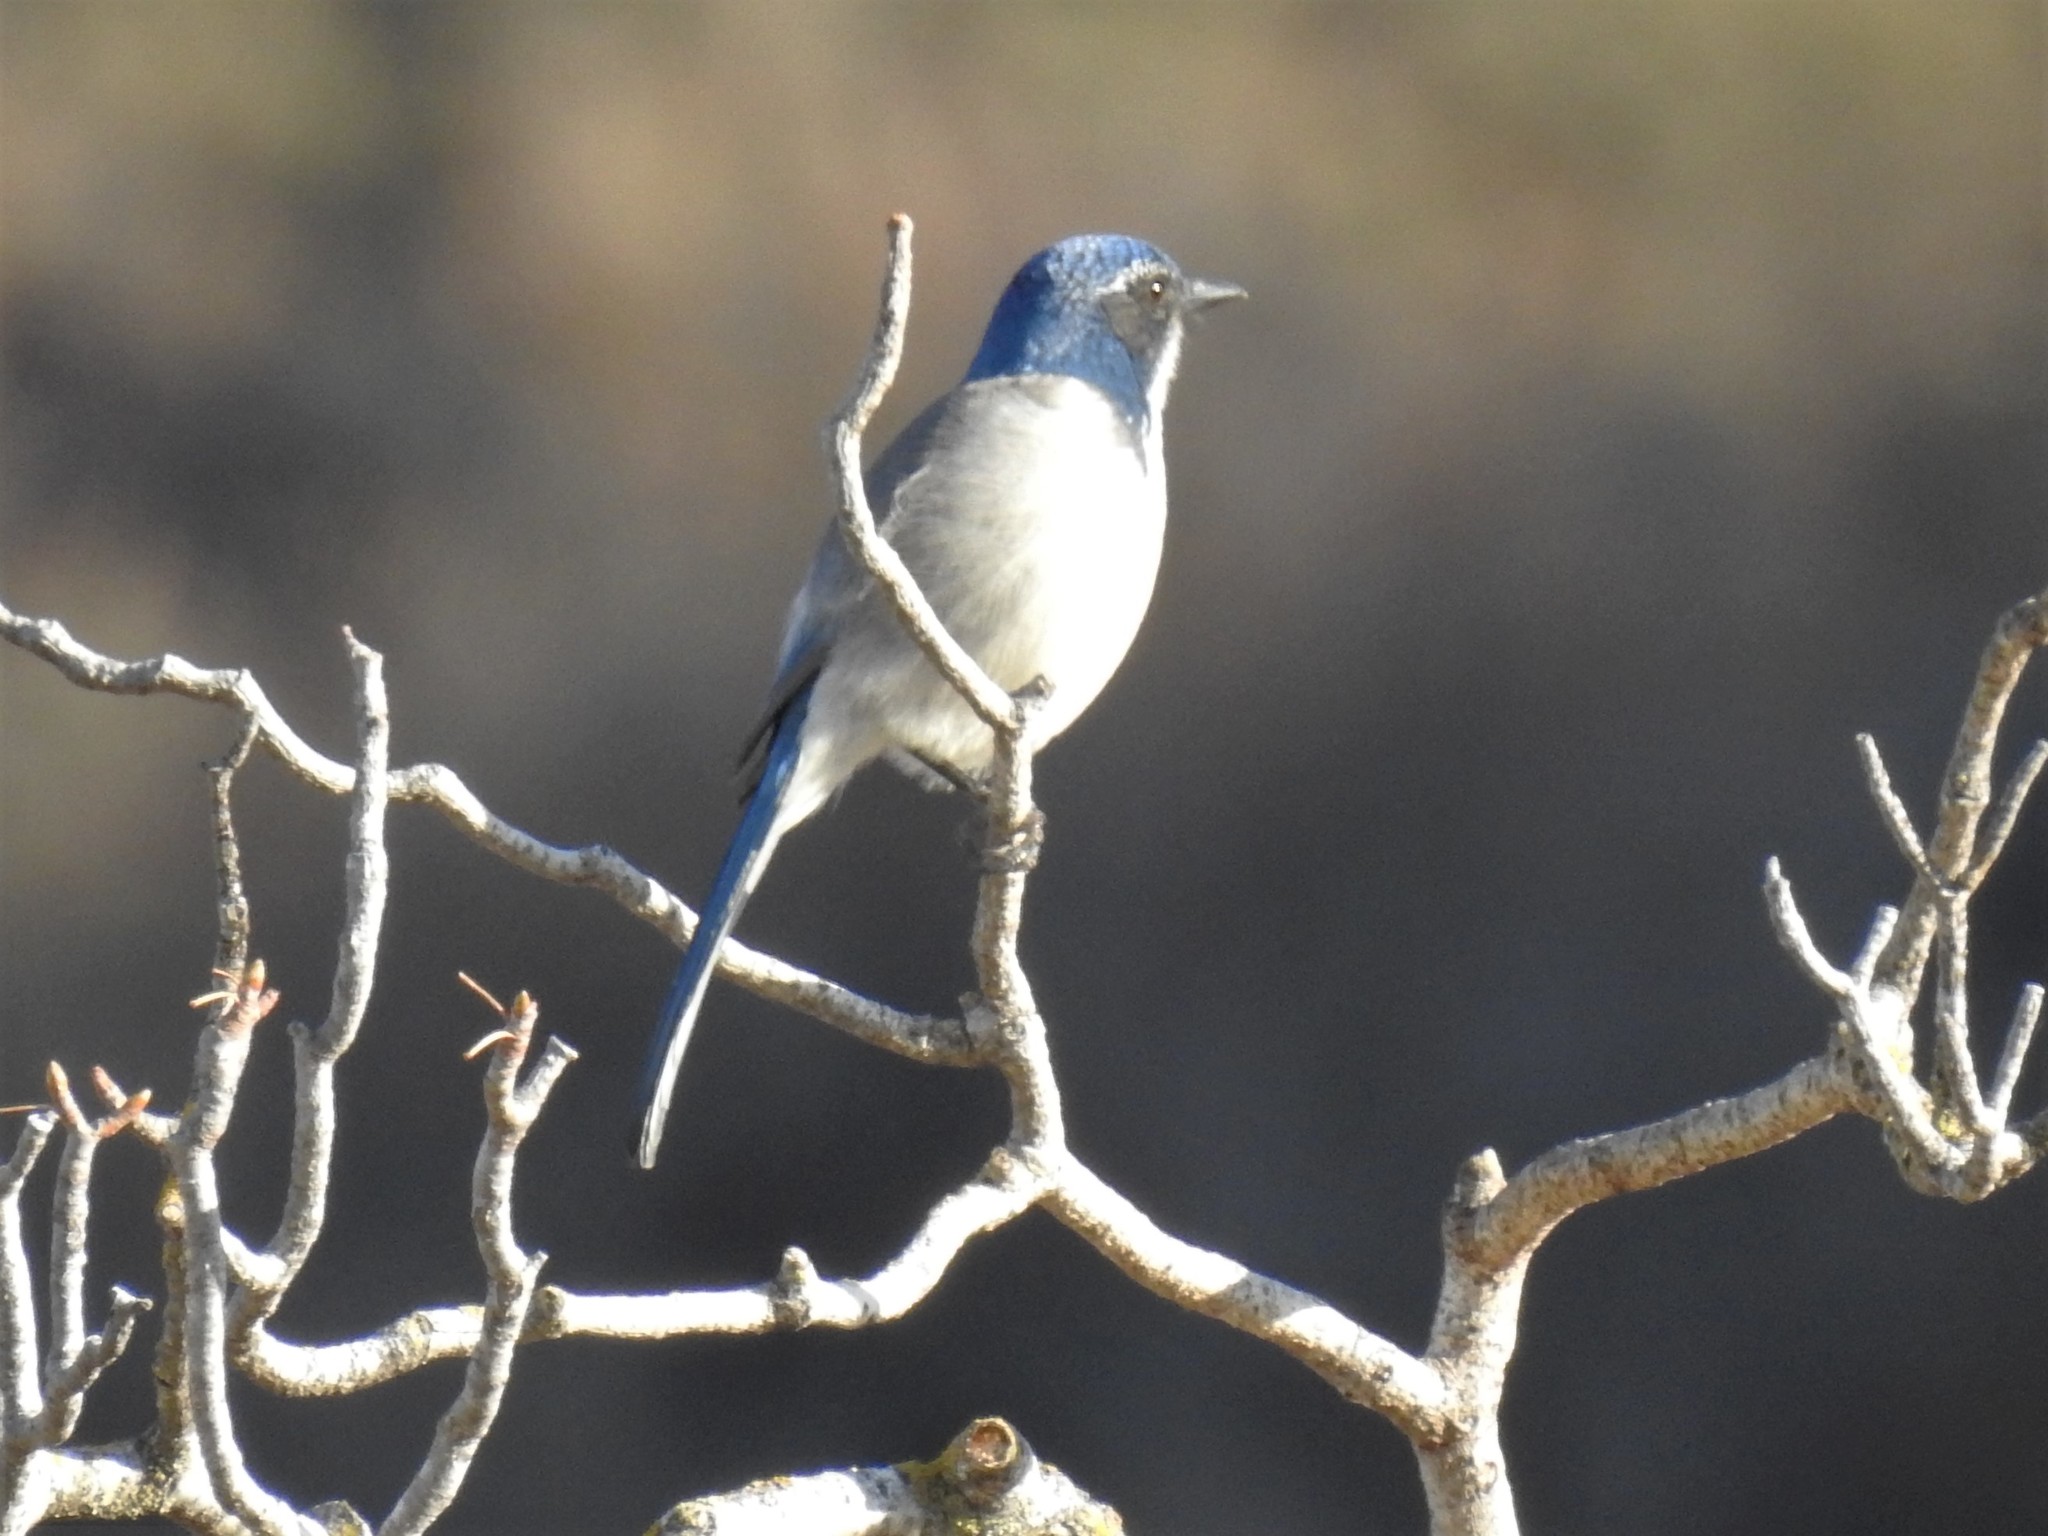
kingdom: Animalia
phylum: Chordata
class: Aves
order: Passeriformes
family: Corvidae
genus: Aphelocoma
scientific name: Aphelocoma californica
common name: California scrub-jay
